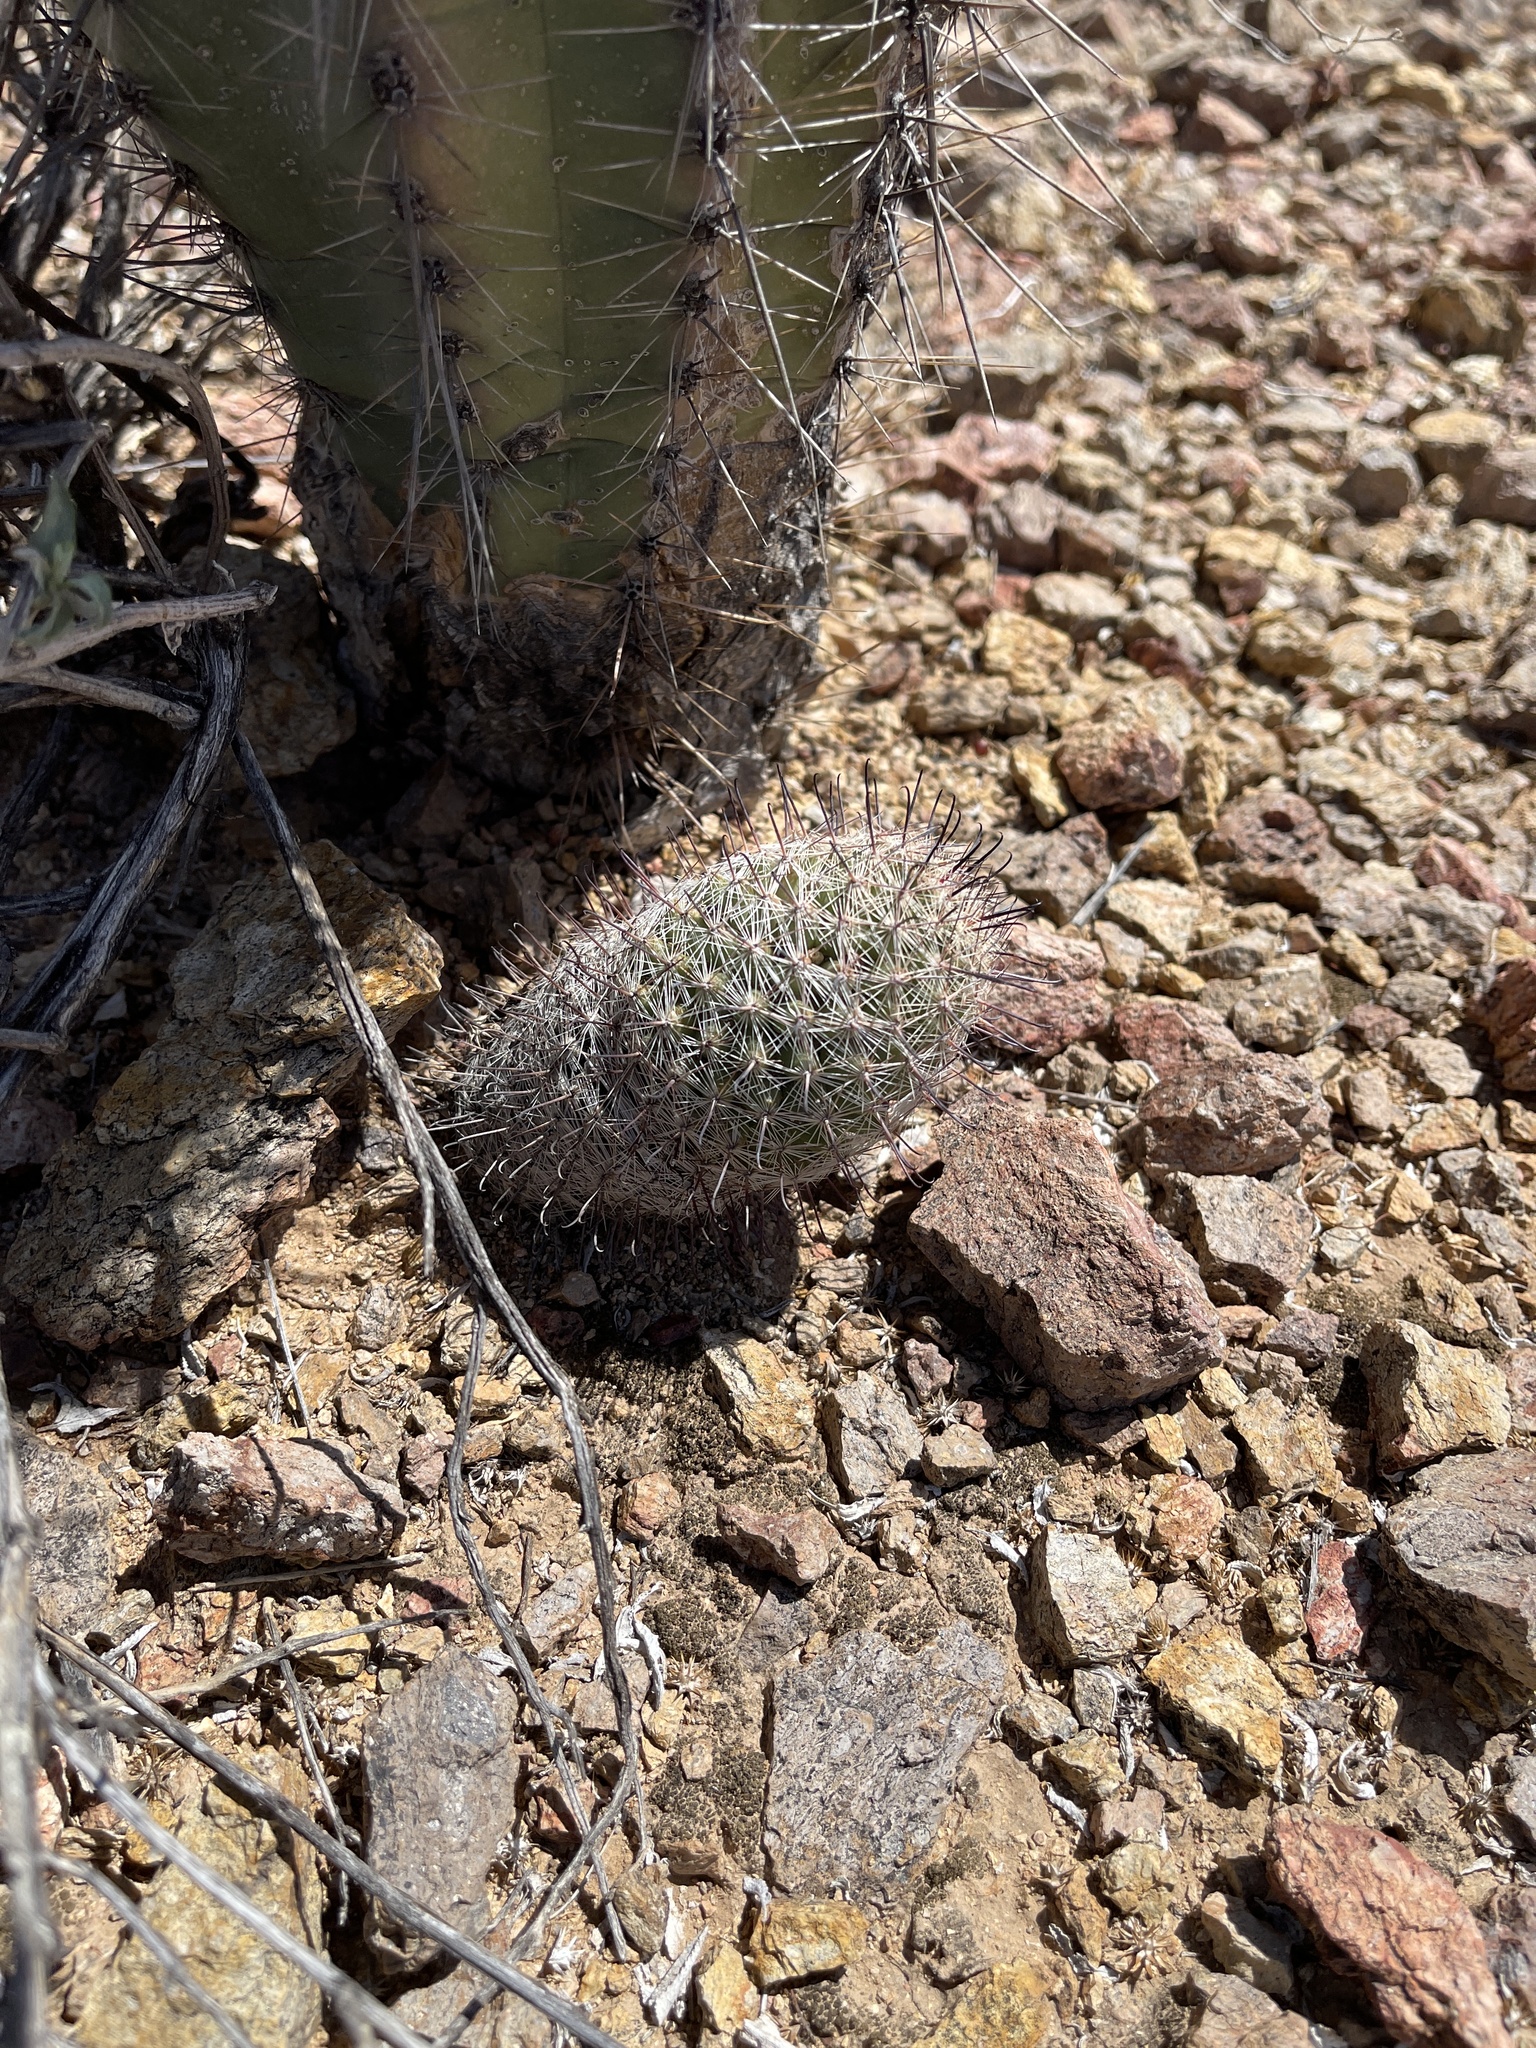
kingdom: Plantae
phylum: Tracheophyta
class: Magnoliopsida
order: Caryophyllales
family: Cactaceae
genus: Cochemiea
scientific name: Cochemiea grahamii
